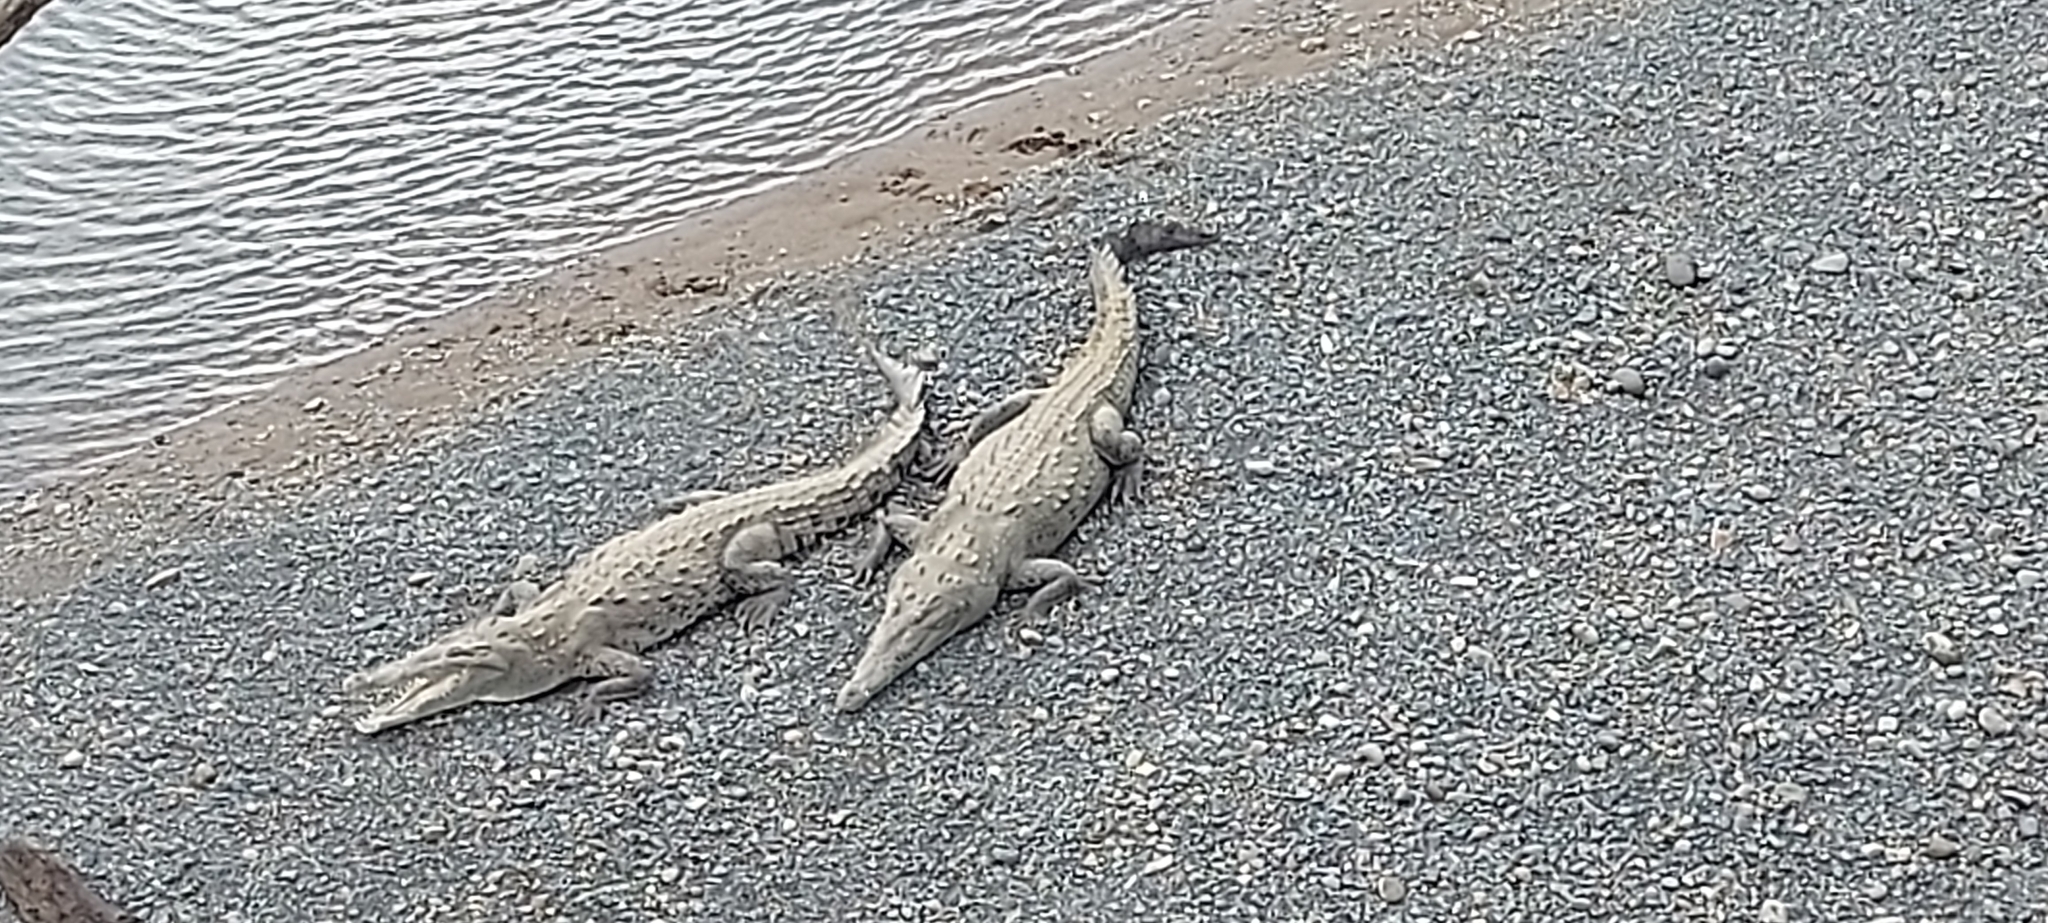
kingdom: Animalia
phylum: Chordata
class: Crocodylia
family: Crocodylidae
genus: Crocodylus
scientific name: Crocodylus acutus
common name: American crocodile
